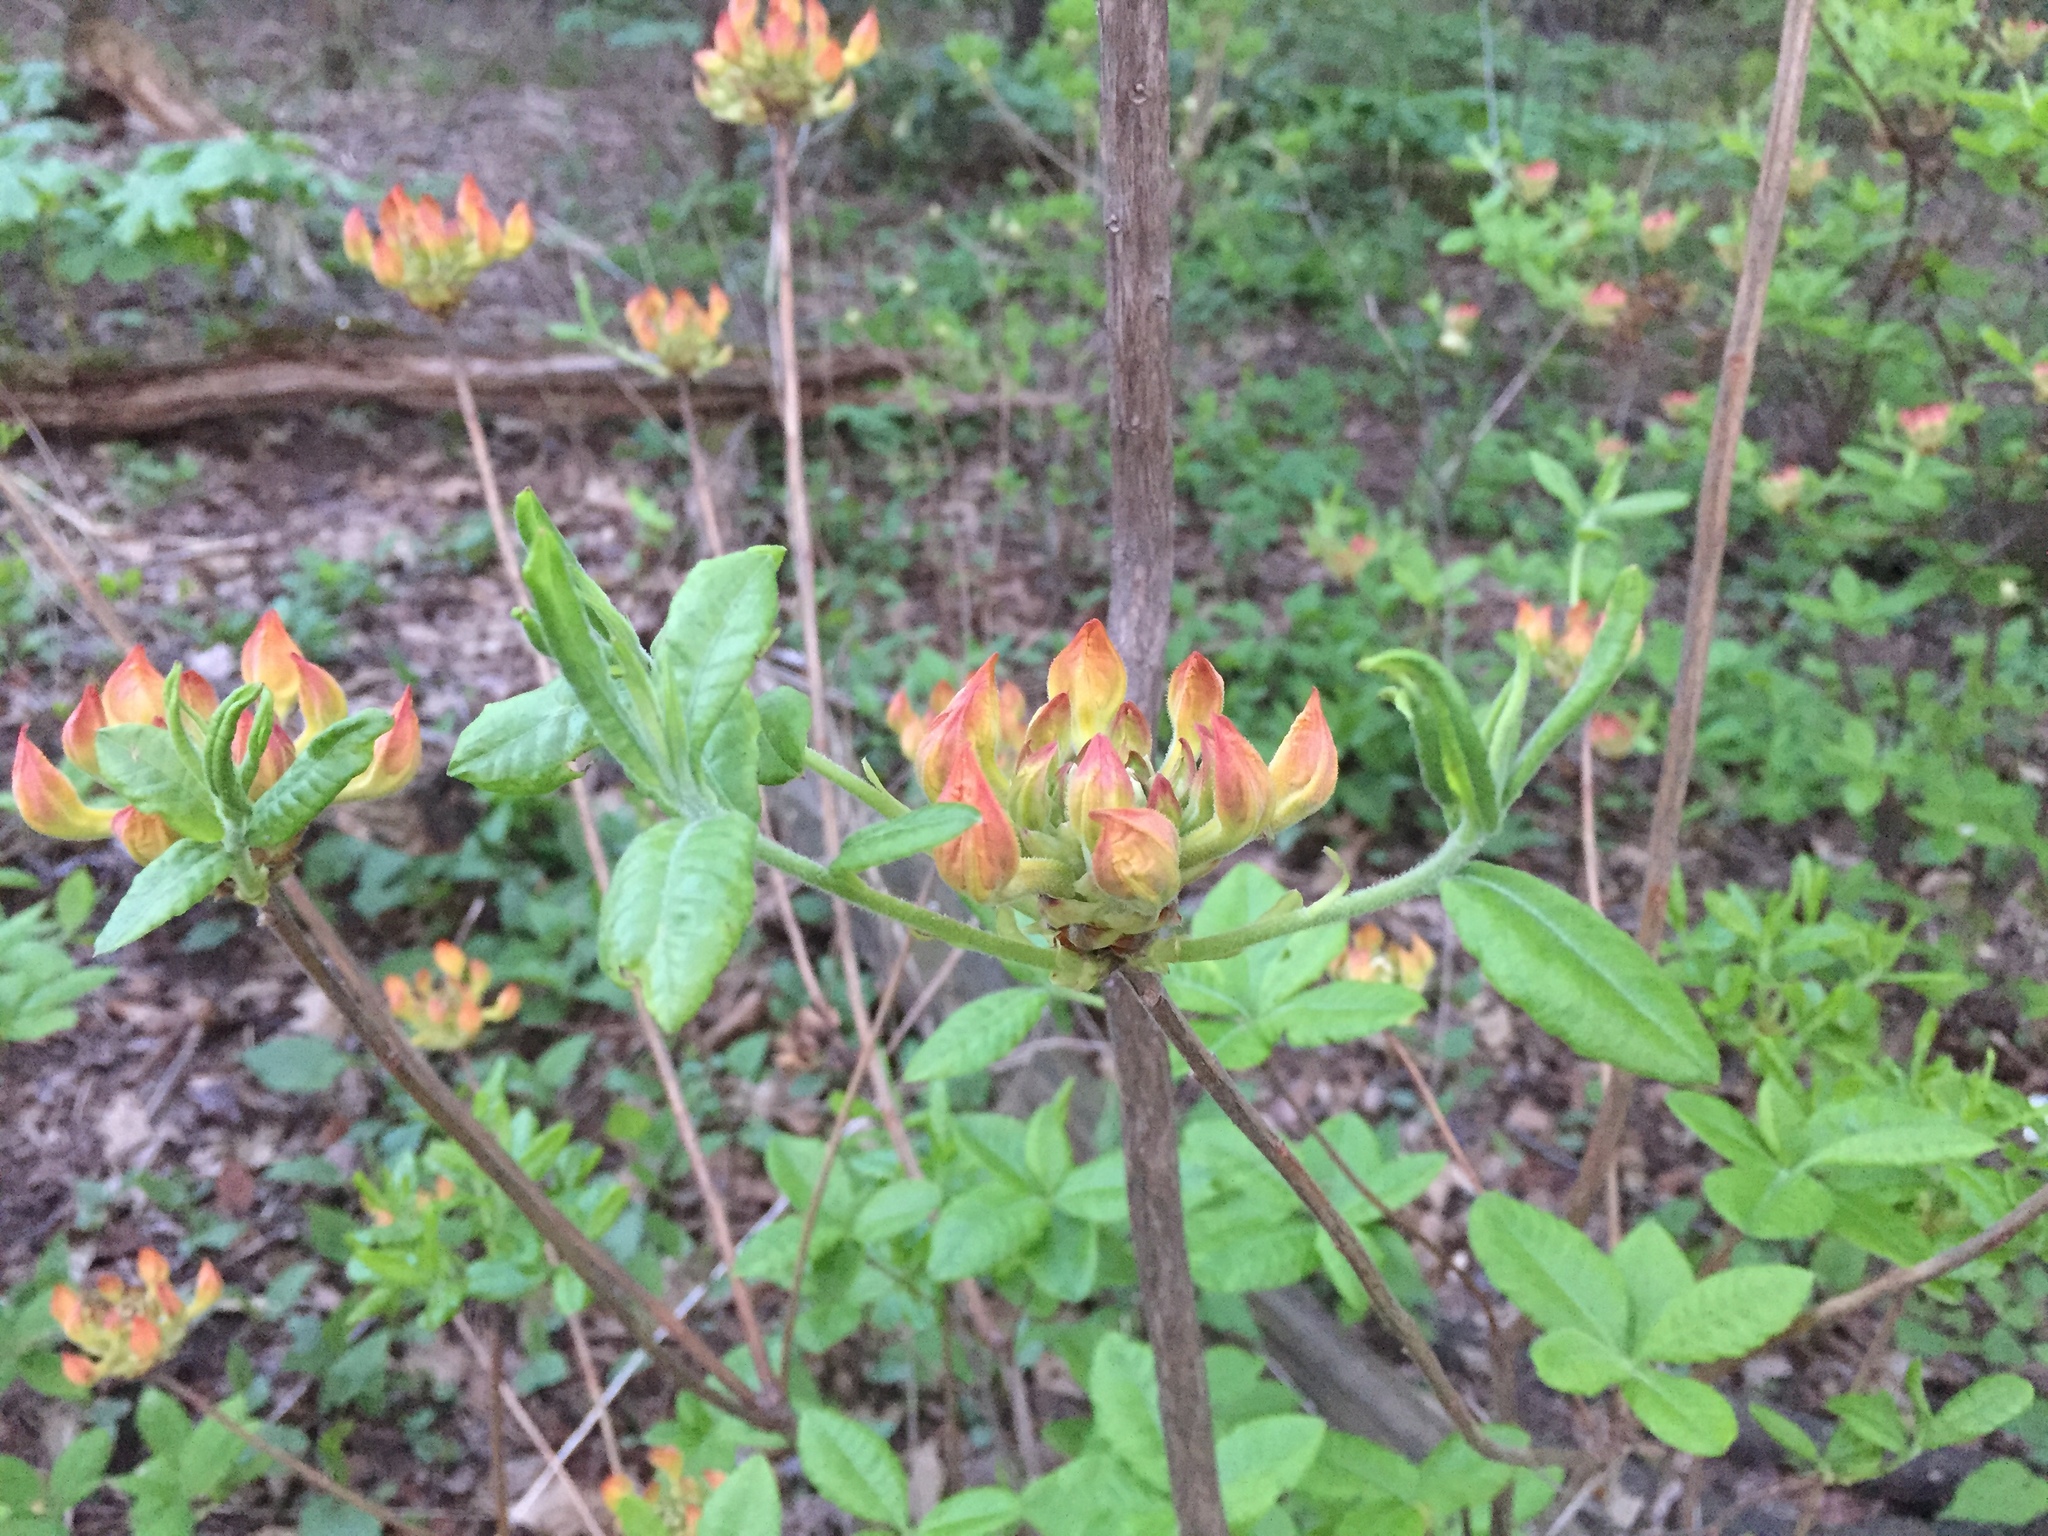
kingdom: Plantae
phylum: Tracheophyta
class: Magnoliopsida
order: Ericales
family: Ericaceae
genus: Rhododendron
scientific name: Rhododendron calendulaceum
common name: Flame azalea
